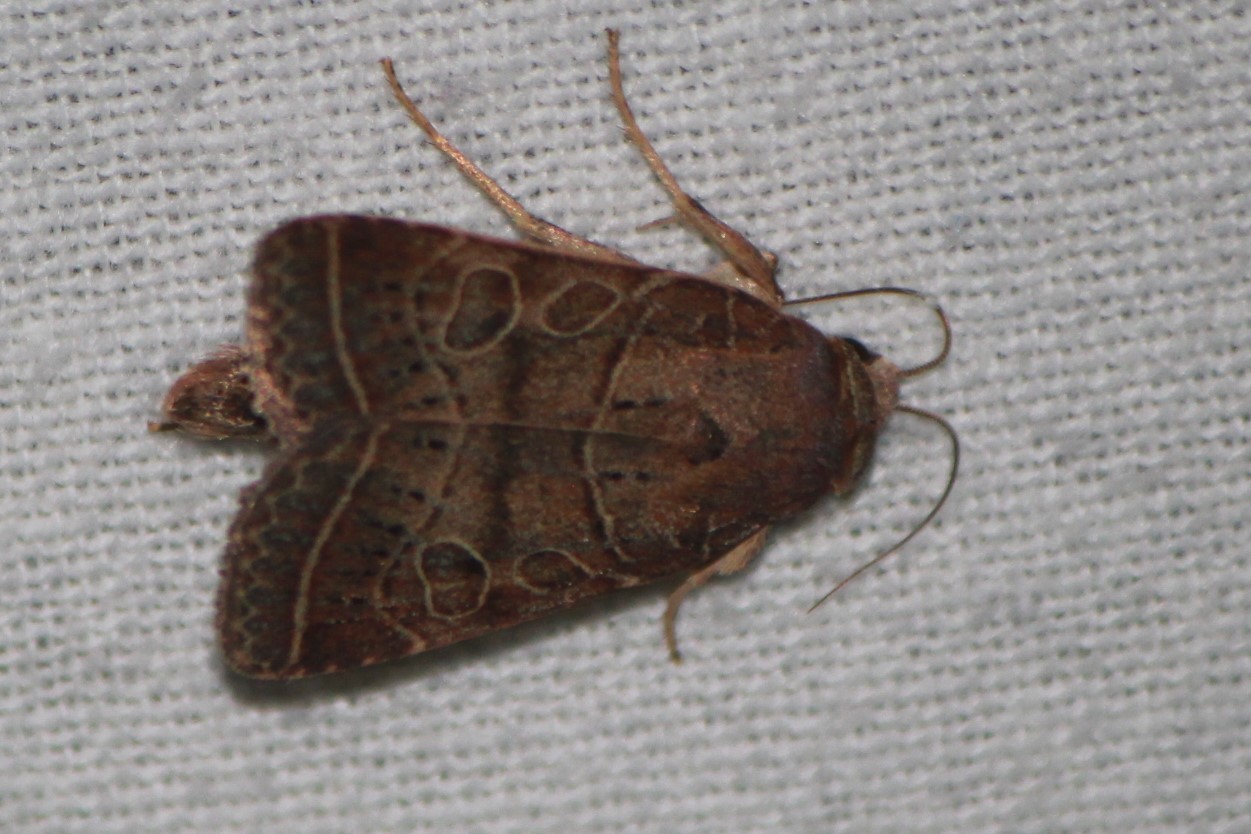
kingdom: Animalia
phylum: Arthropoda
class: Insecta
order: Lepidoptera
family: Noctuidae
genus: Orthodes
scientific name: Orthodes majuscula
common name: Rustic quaker
